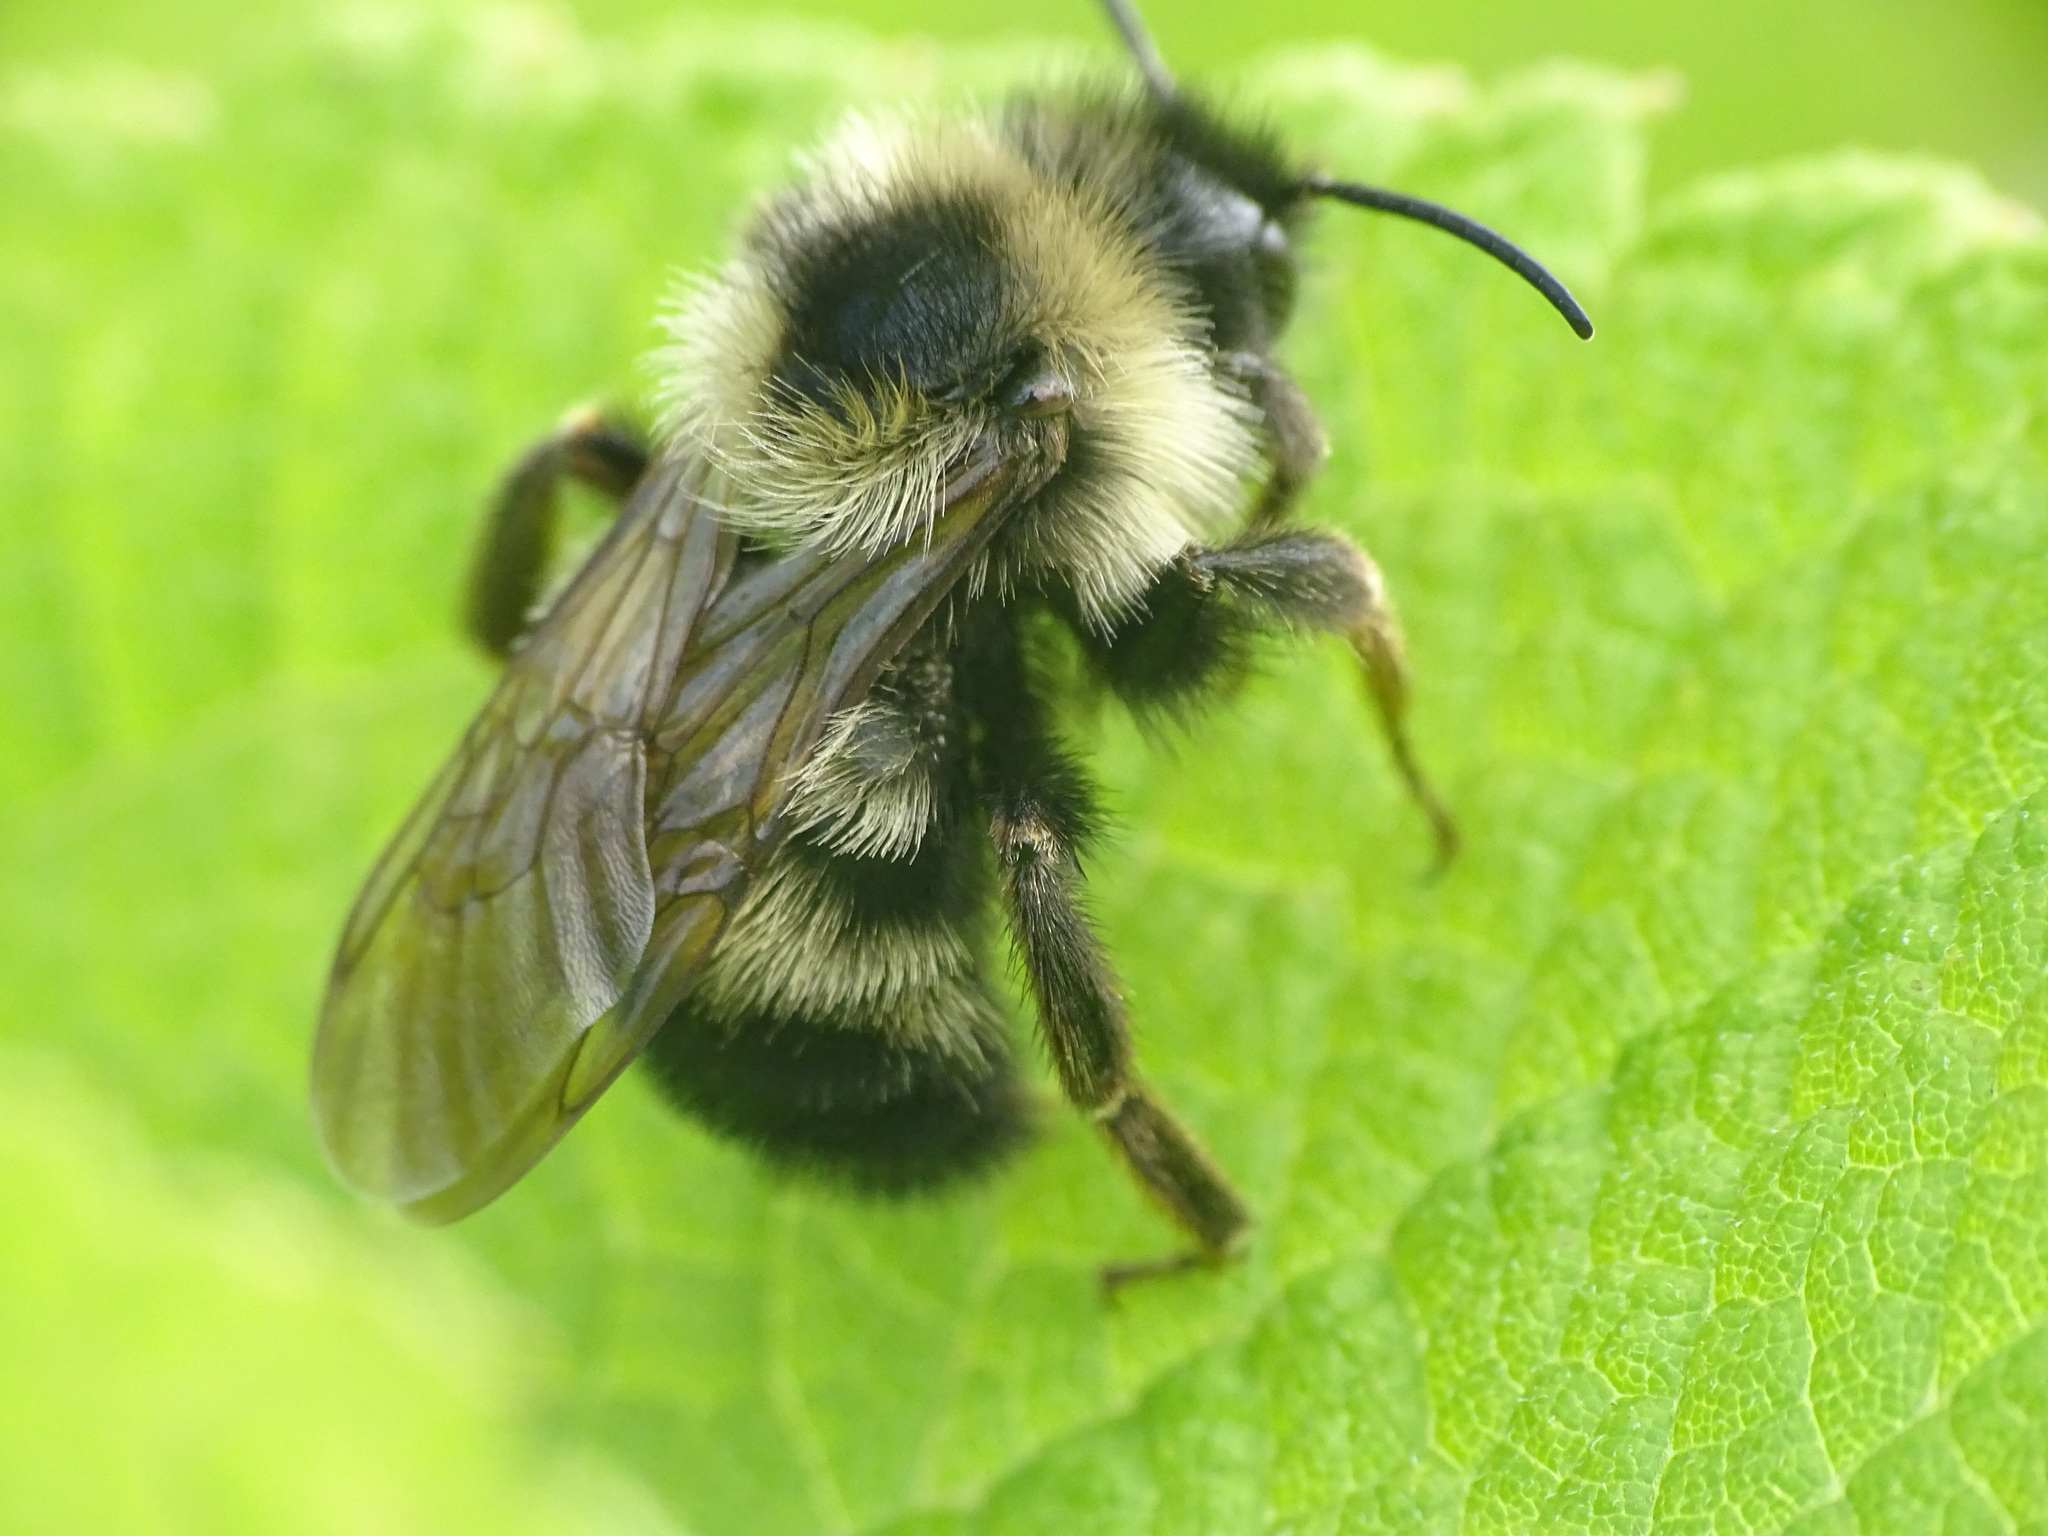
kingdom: Animalia
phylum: Arthropoda
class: Insecta
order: Hymenoptera
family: Apidae
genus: Bombus
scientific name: Bombus citrinus
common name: Lemon cuckoo bumble bee
